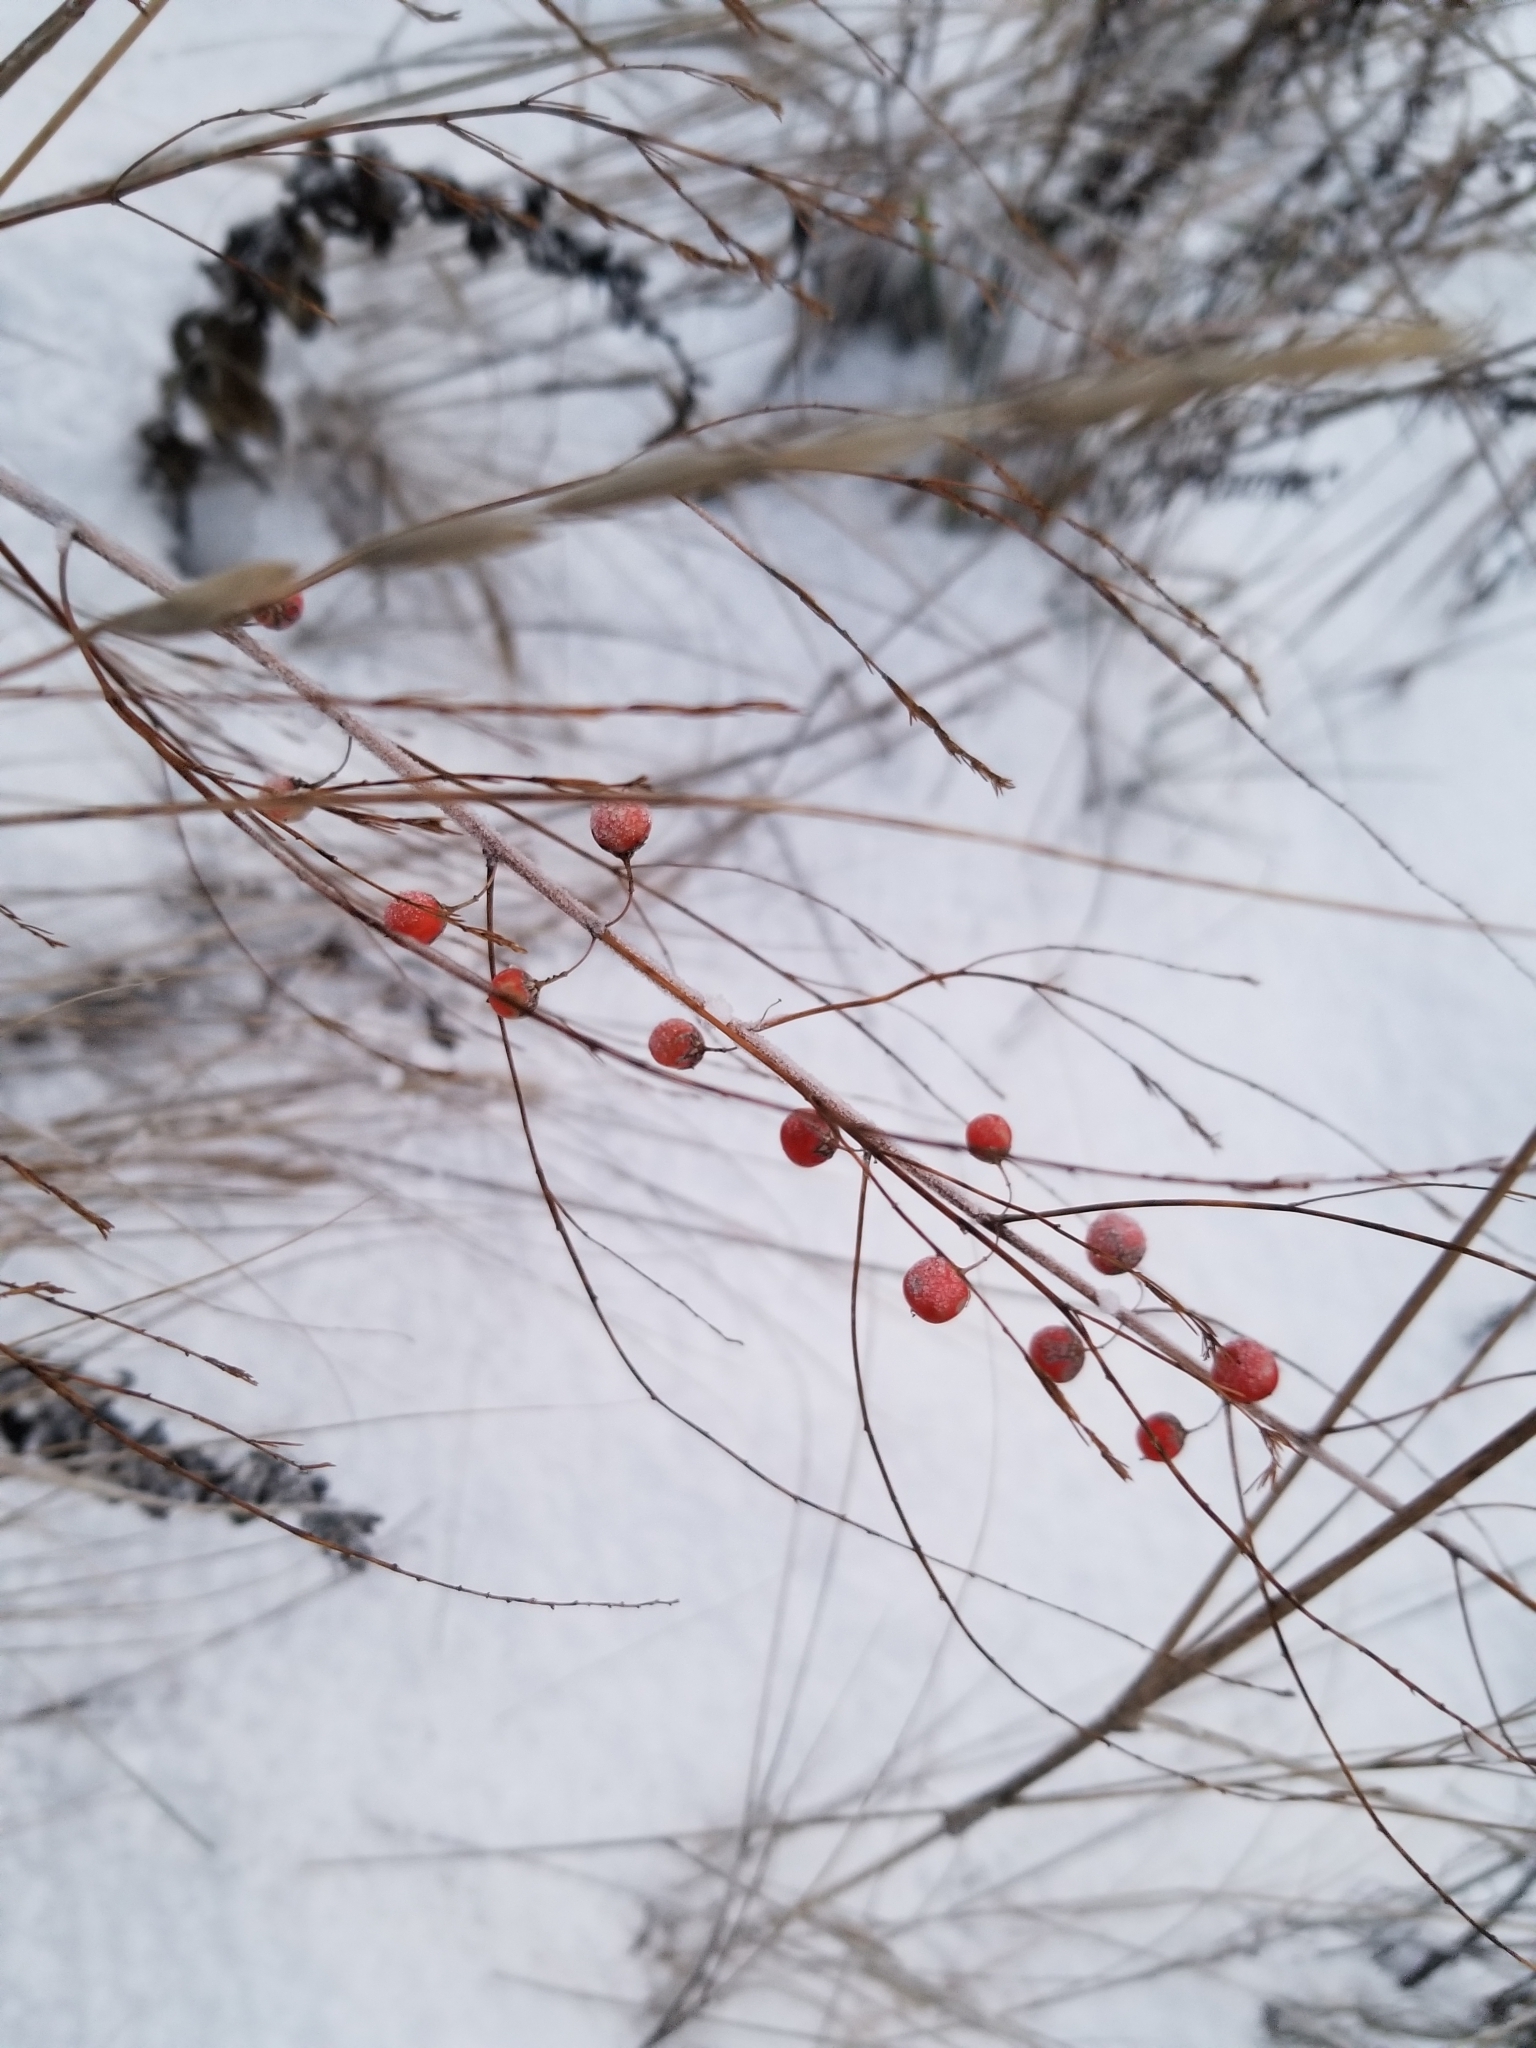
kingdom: Plantae
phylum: Tracheophyta
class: Liliopsida
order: Asparagales
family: Asparagaceae
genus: Asparagus
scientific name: Asparagus officinalis
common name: Garden asparagus
